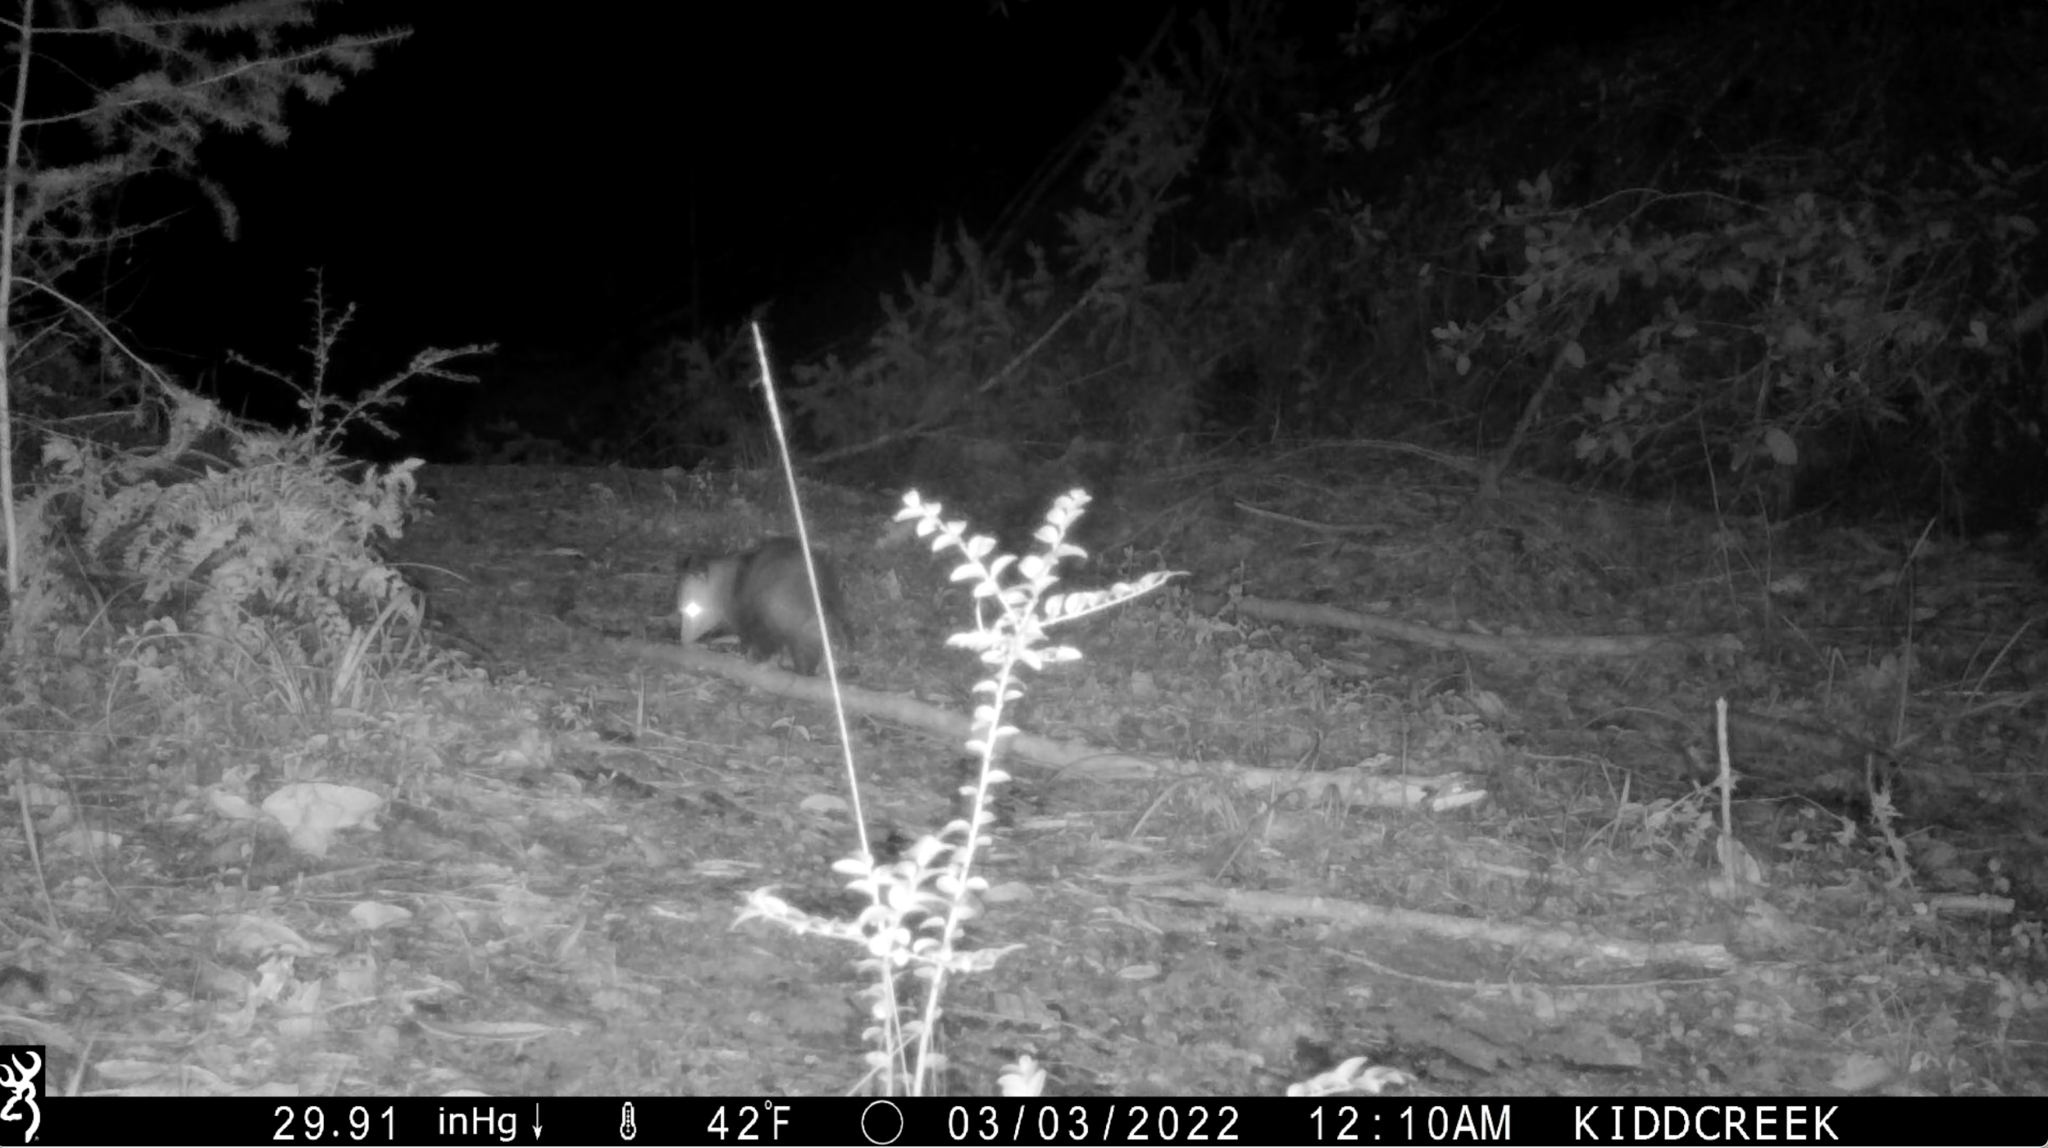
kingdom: Animalia
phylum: Chordata
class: Mammalia
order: Didelphimorphia
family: Didelphidae
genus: Didelphis
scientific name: Didelphis virginiana
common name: Virginia opossum
